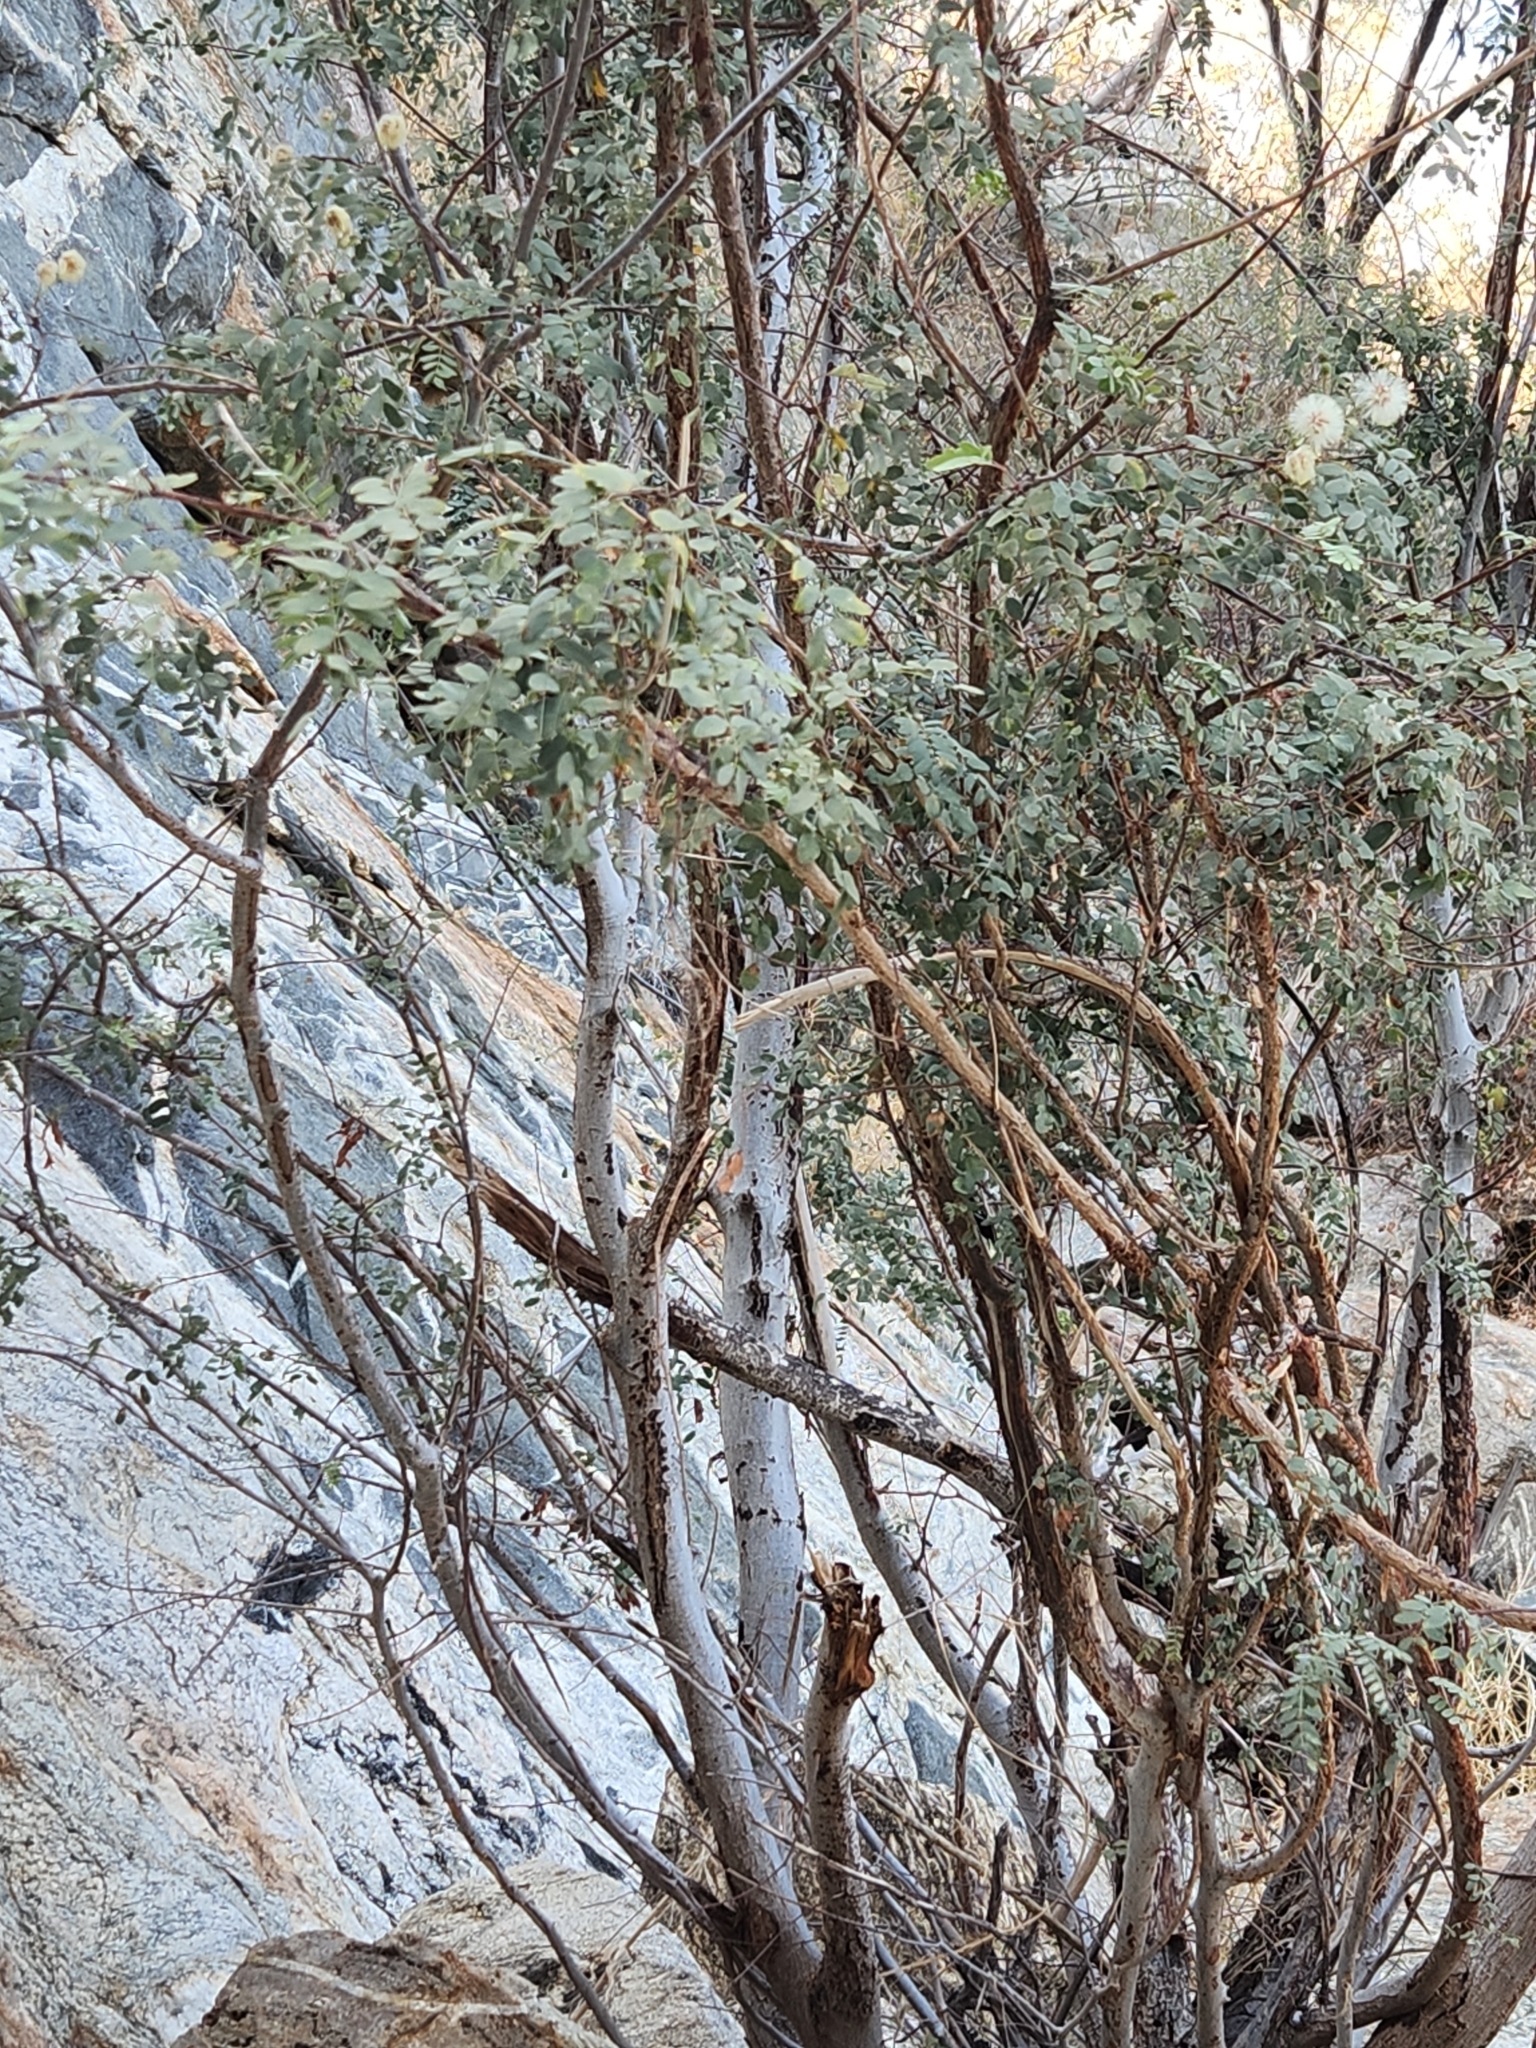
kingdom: Plantae
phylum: Tracheophyta
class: Magnoliopsida
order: Fabales
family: Fabaceae
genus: Lysiloma
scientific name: Lysiloma candidum
